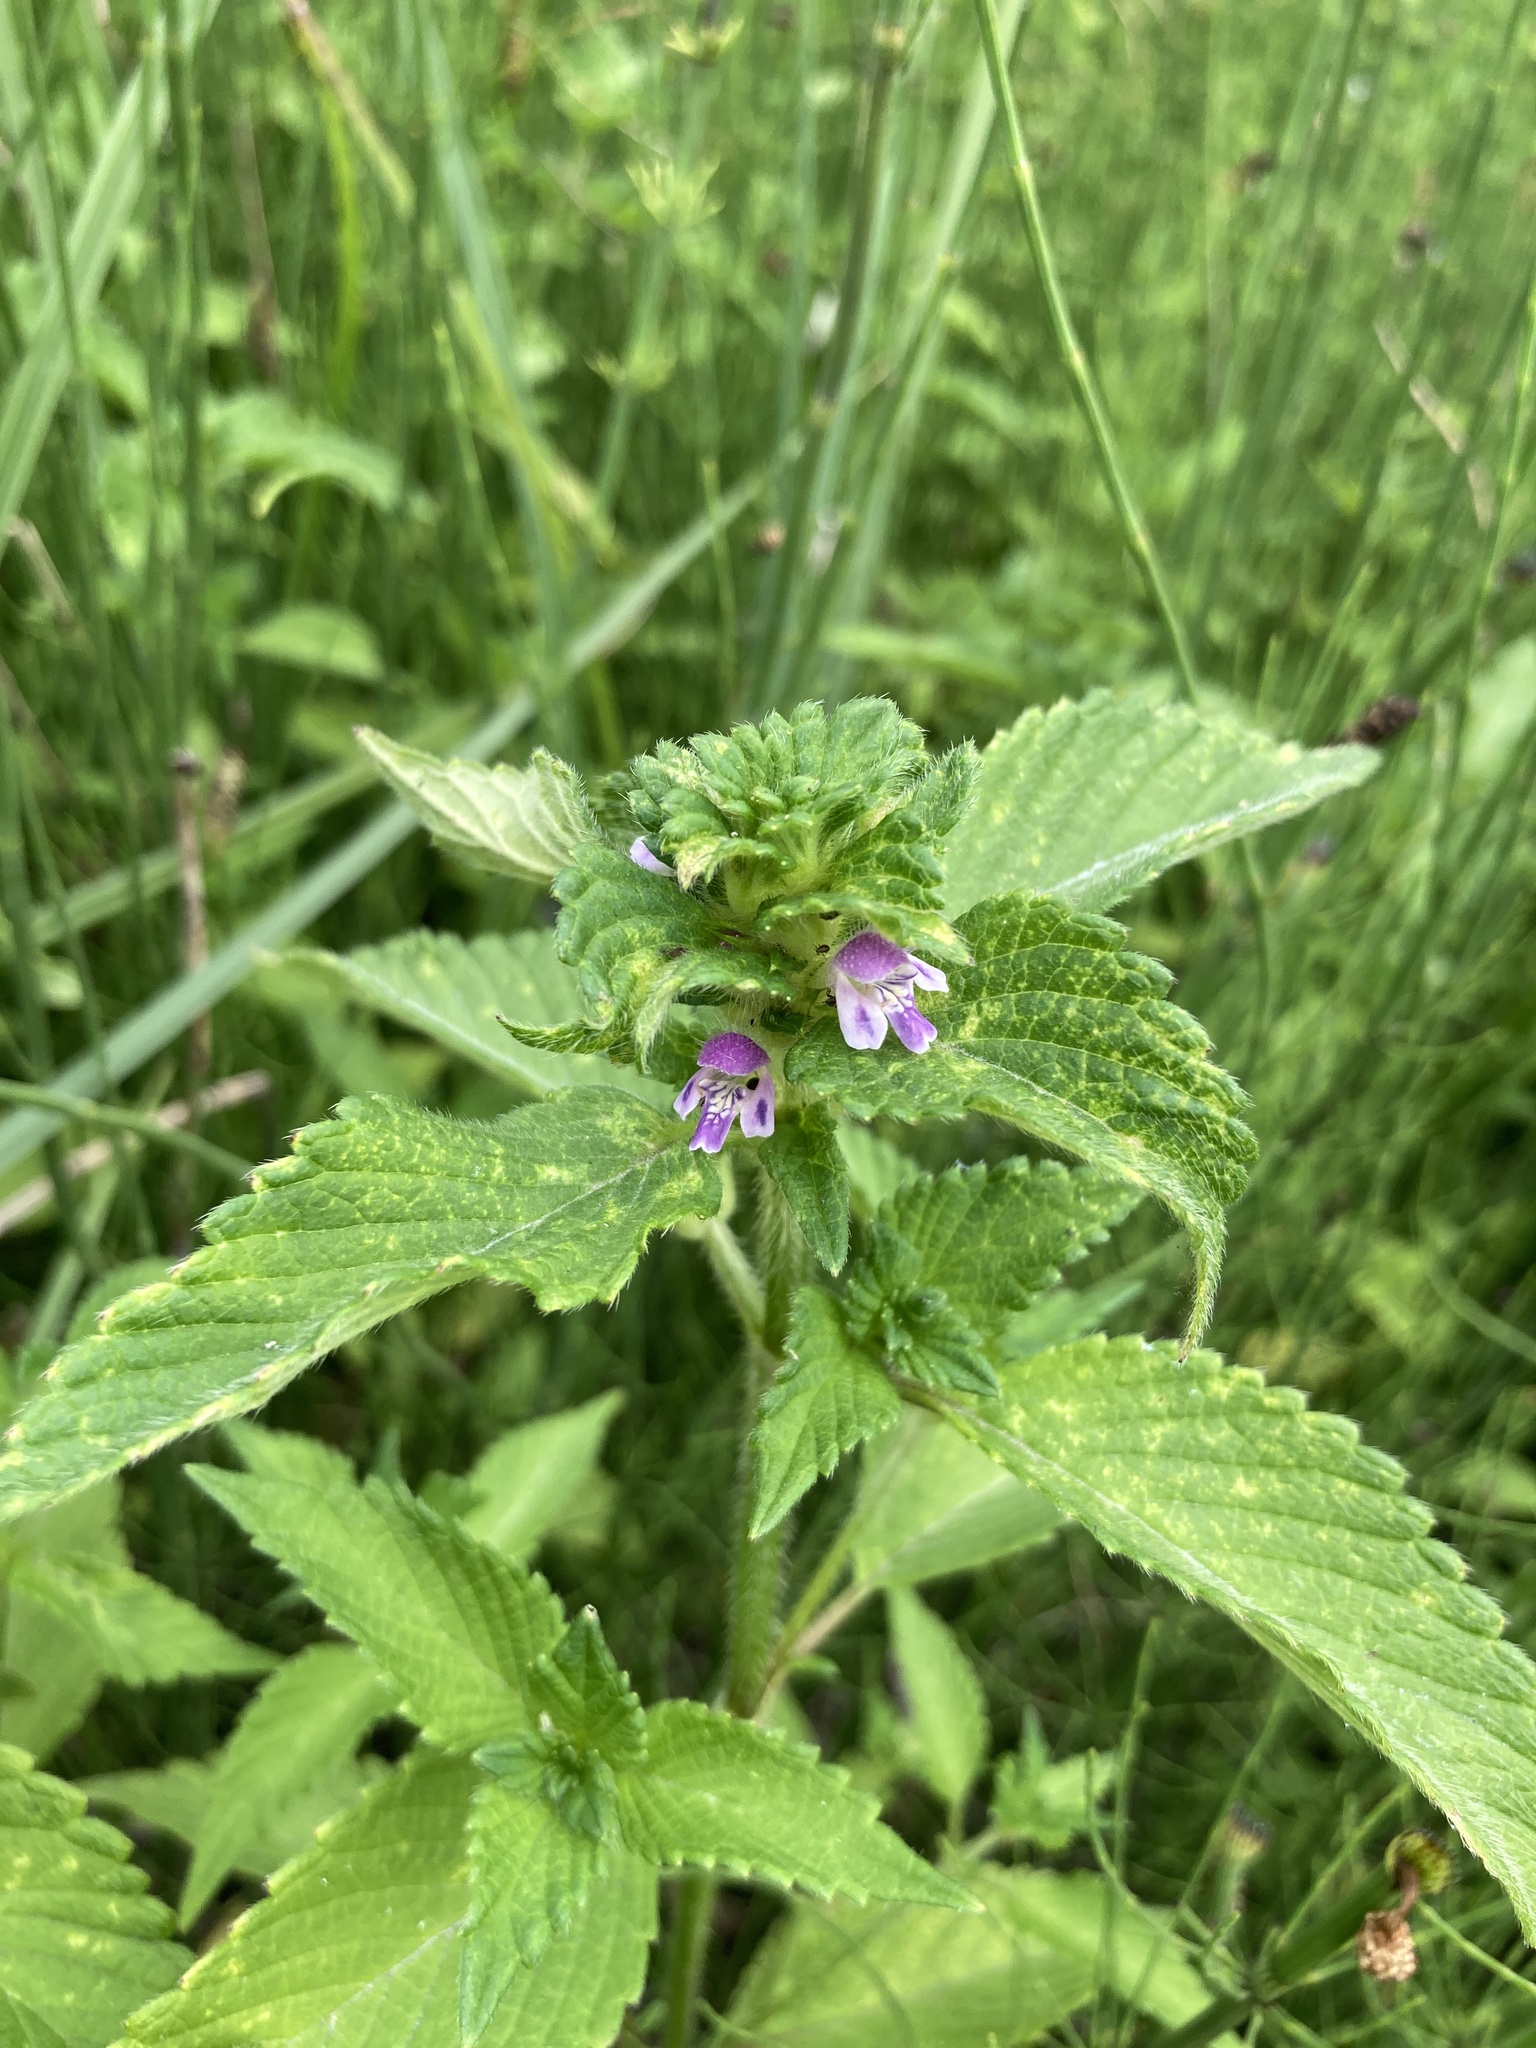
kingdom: Plantae
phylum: Tracheophyta
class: Magnoliopsida
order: Lamiales
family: Lamiaceae
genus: Galeopsis
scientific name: Galeopsis bifida
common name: Bifid hemp-nettle
